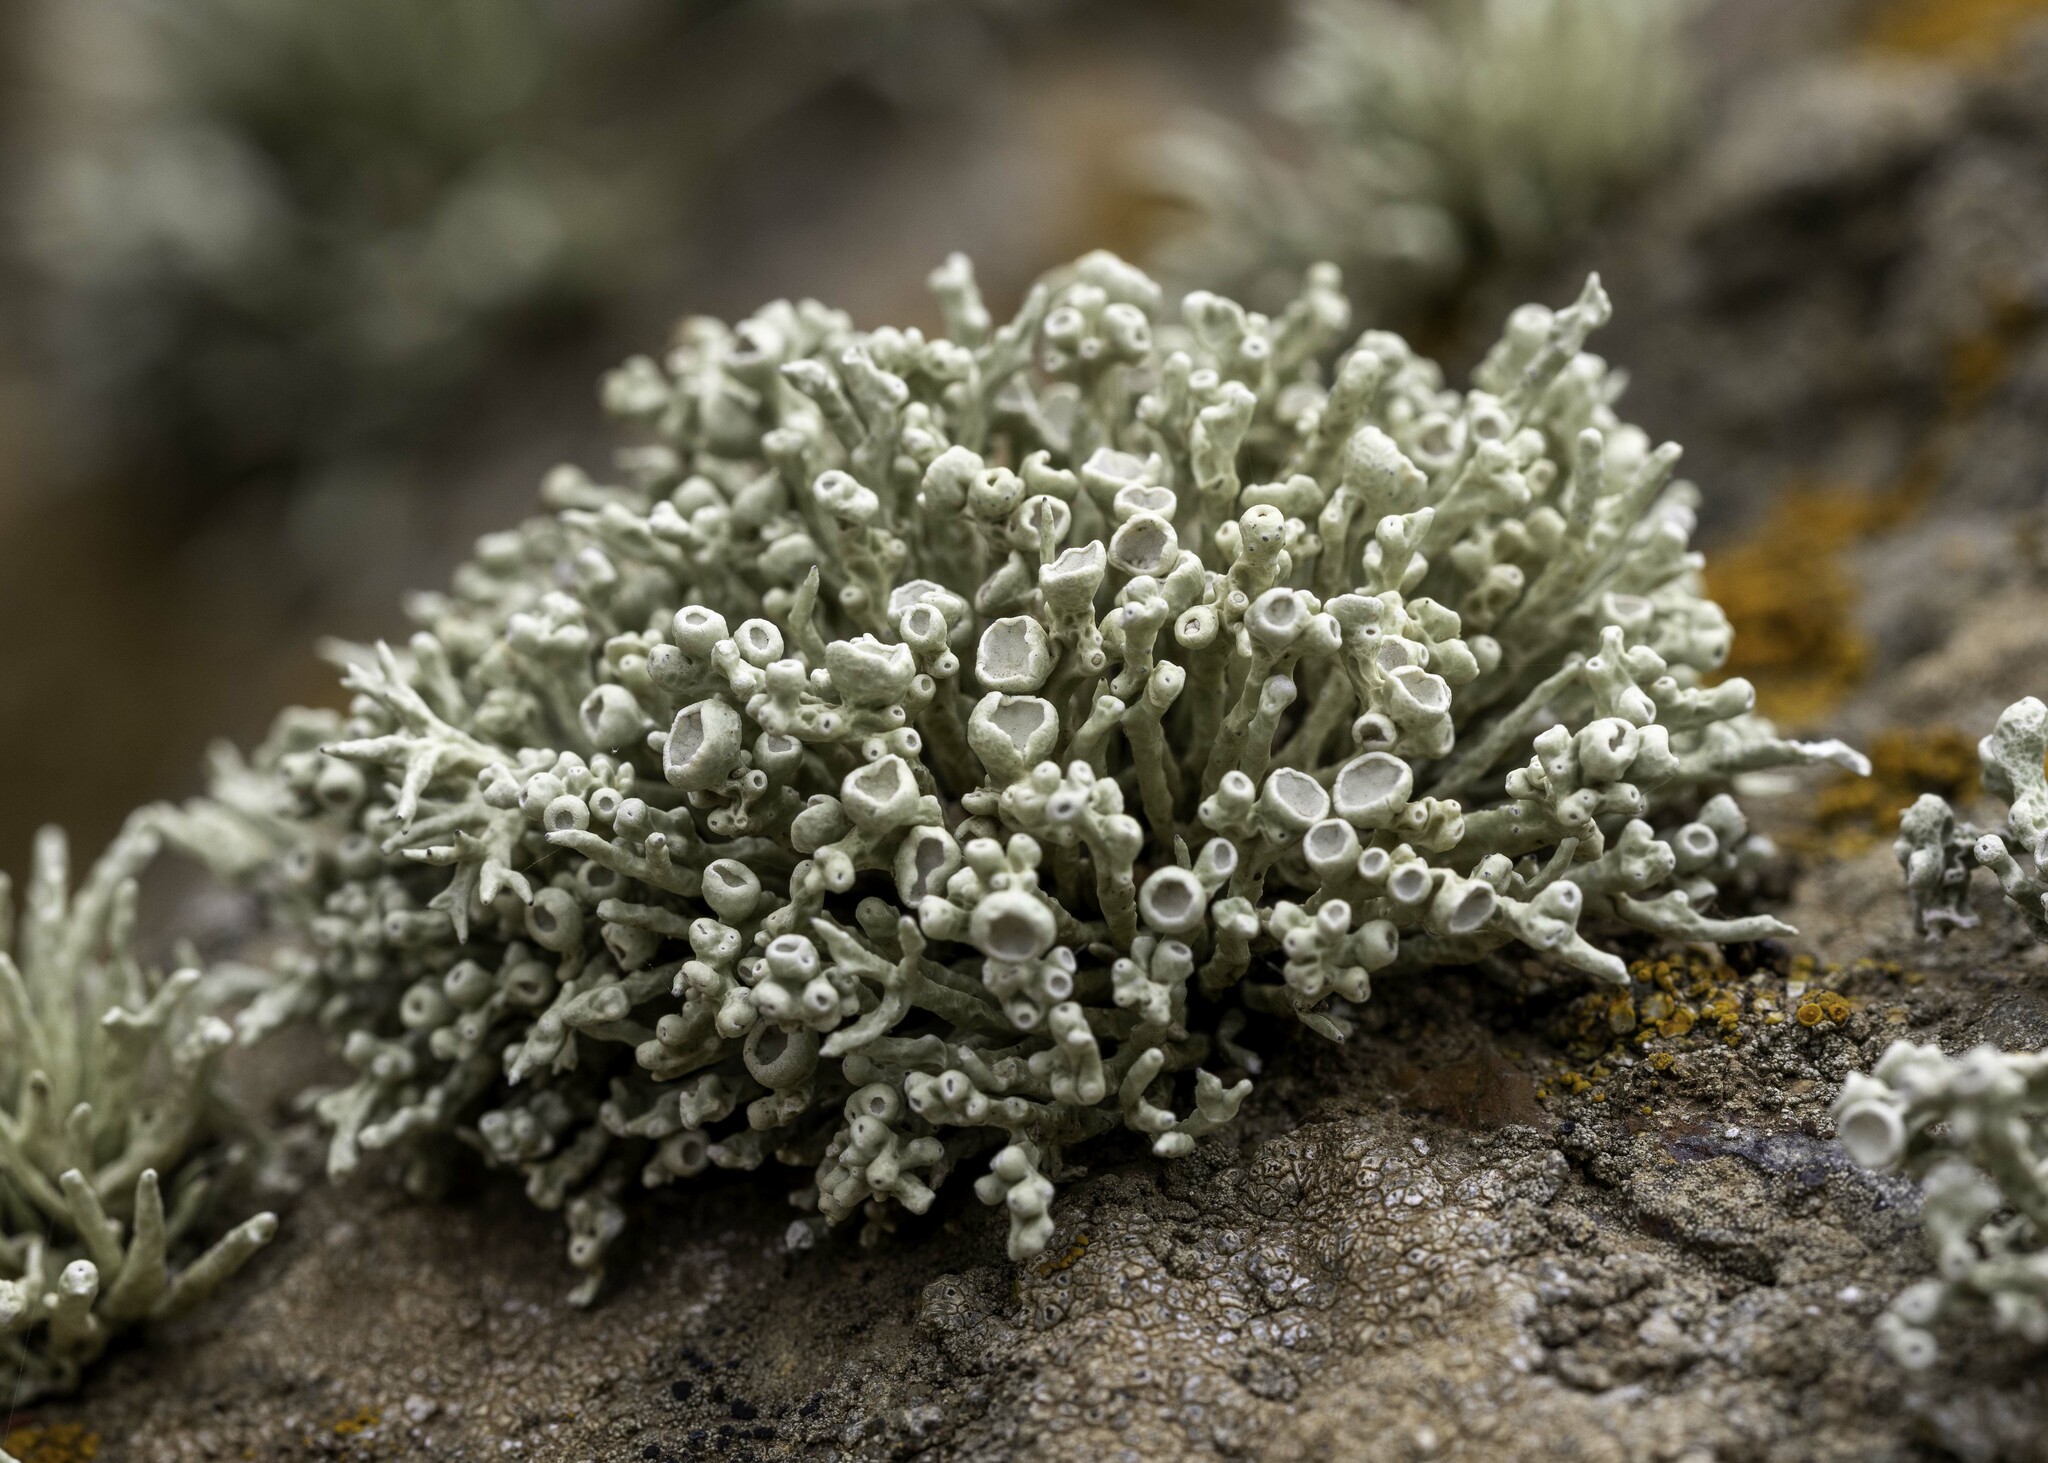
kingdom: Fungi
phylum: Ascomycota
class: Lecanoromycetes
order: Lecanorales
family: Ramalinaceae
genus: Niebla
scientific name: Niebla combeoides
